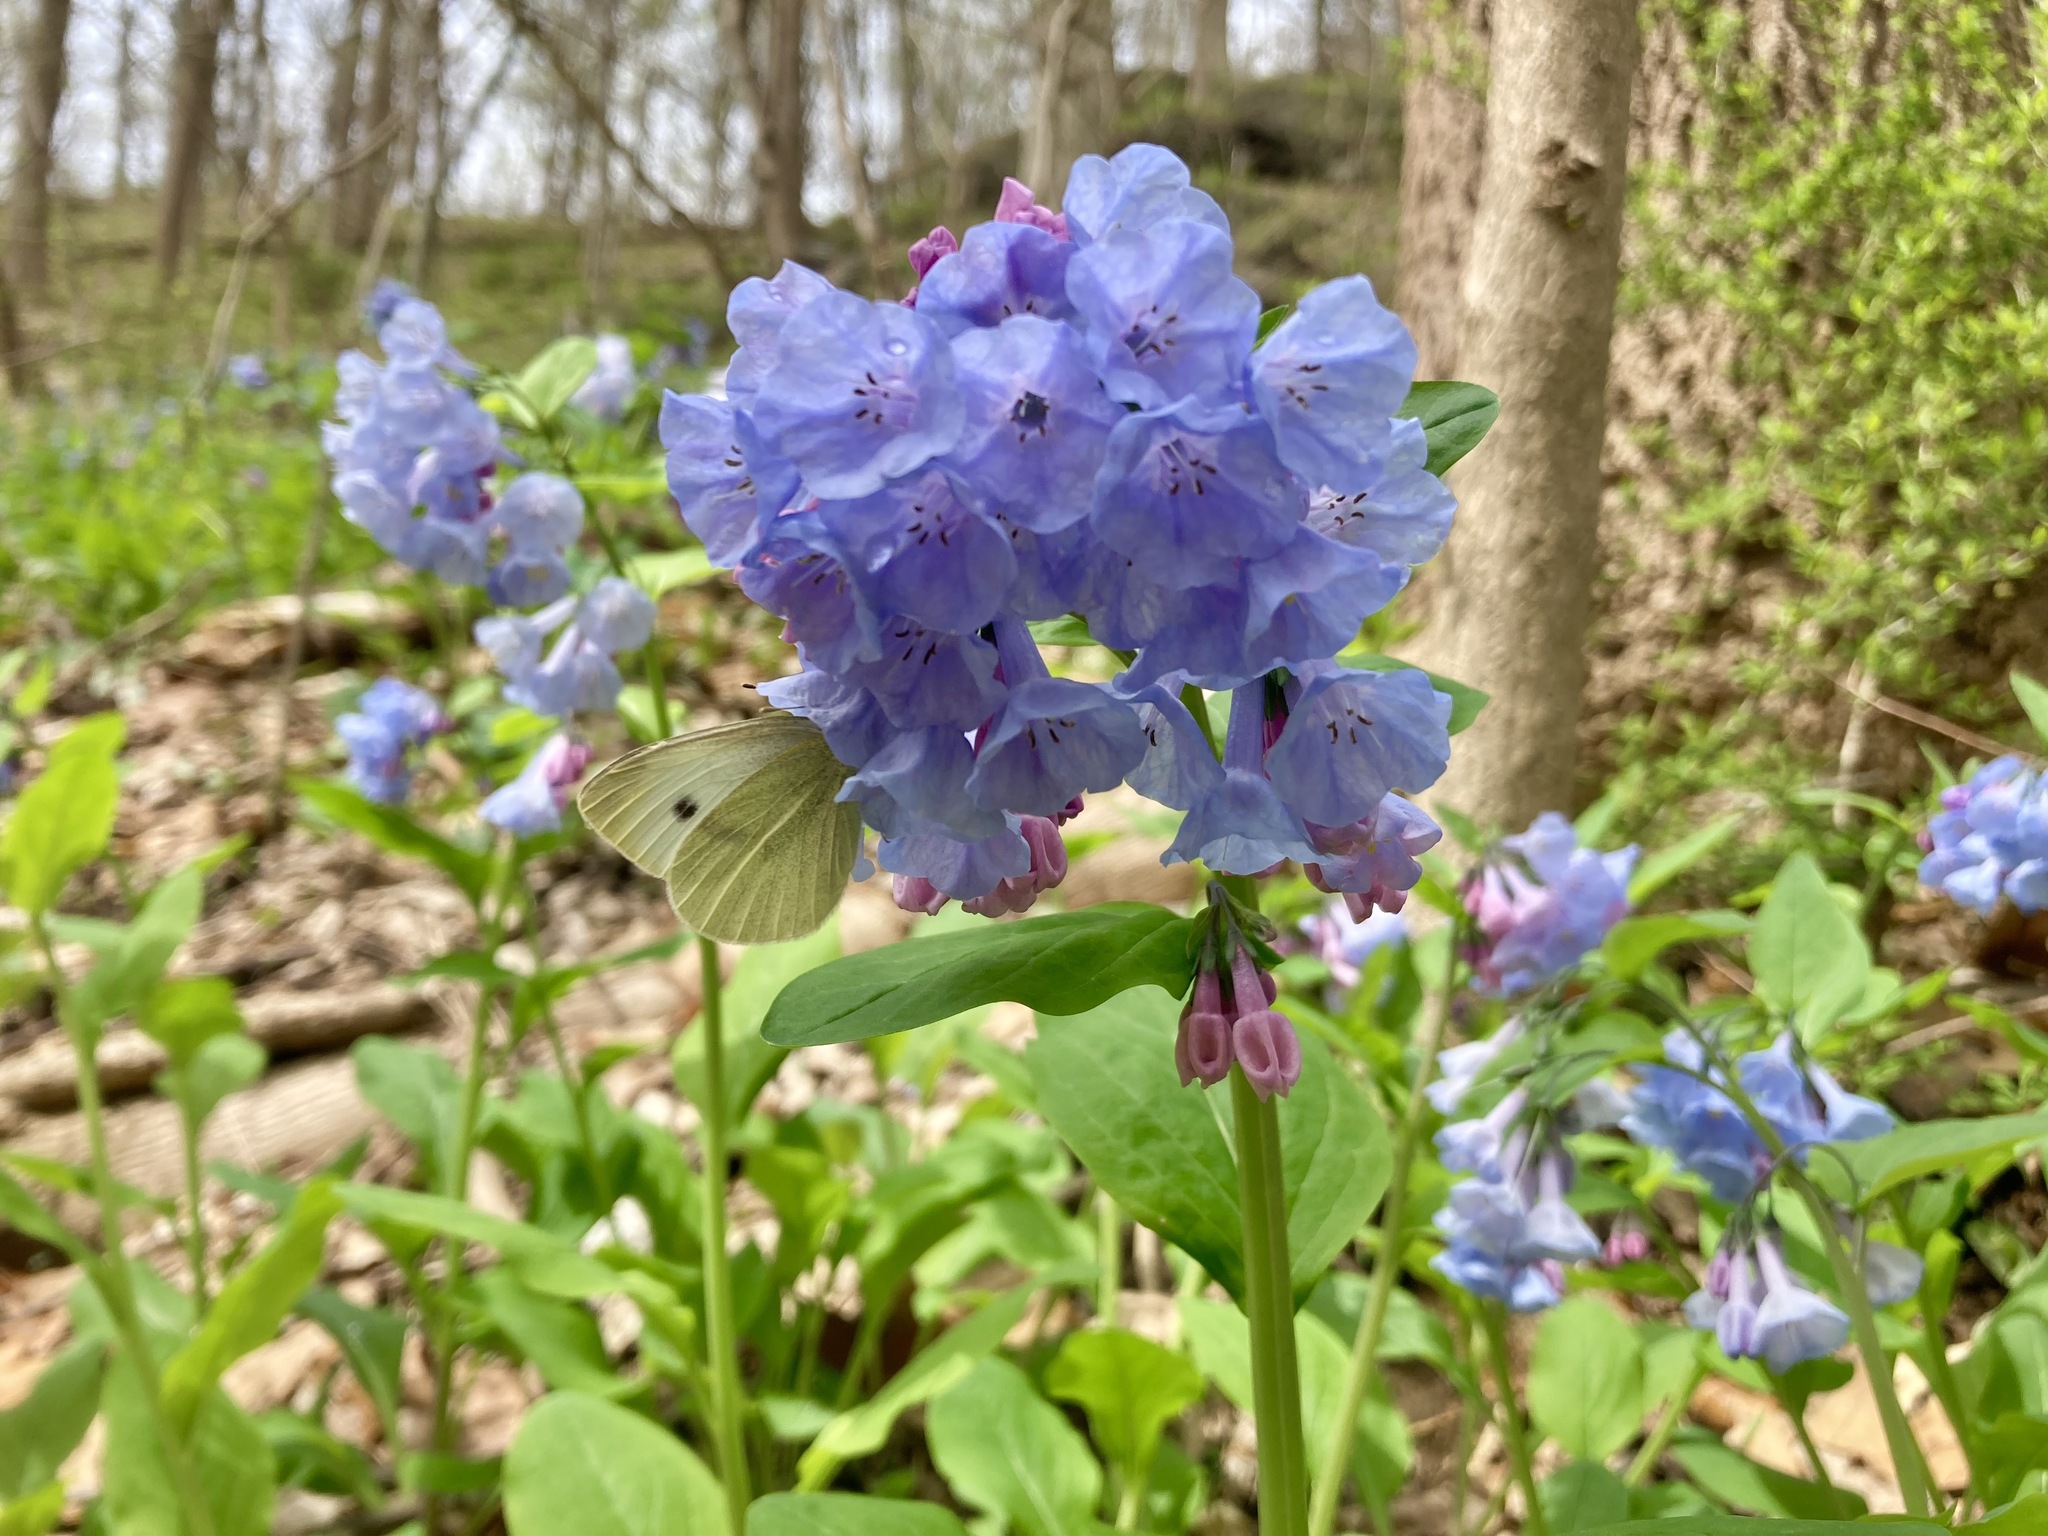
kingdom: Animalia
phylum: Arthropoda
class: Insecta
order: Lepidoptera
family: Pieridae
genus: Pieris
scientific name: Pieris rapae
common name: Small white
